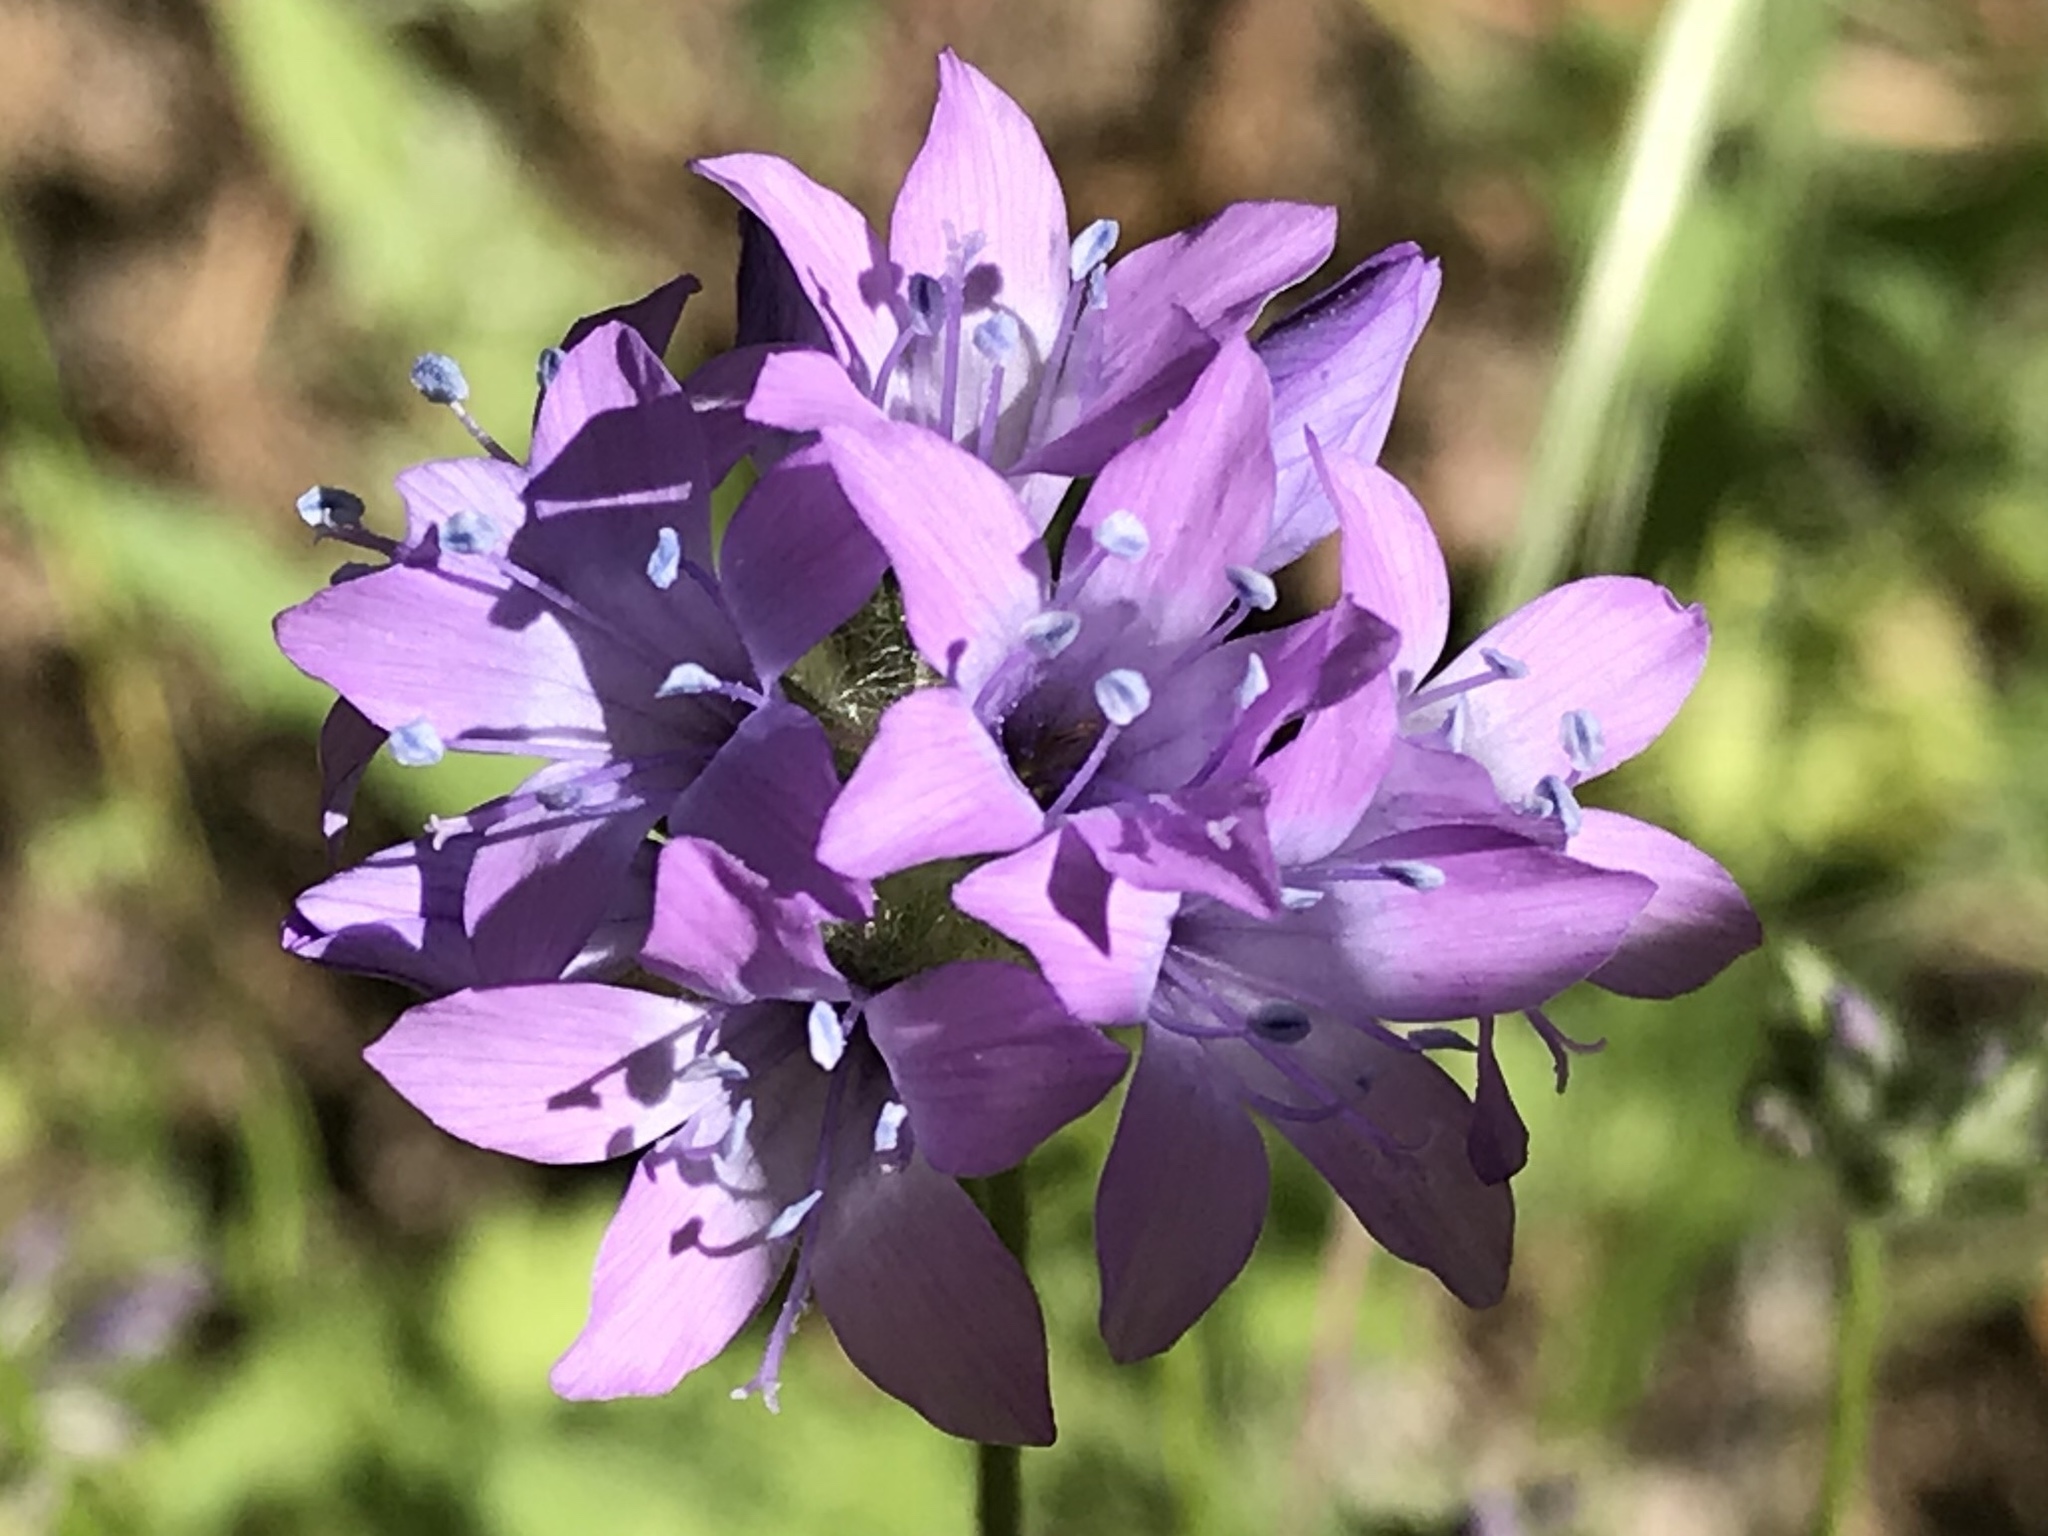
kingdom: Plantae
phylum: Tracheophyta
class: Magnoliopsida
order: Ericales
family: Polemoniaceae
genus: Gilia
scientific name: Gilia achilleifolia
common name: California gily-flower
